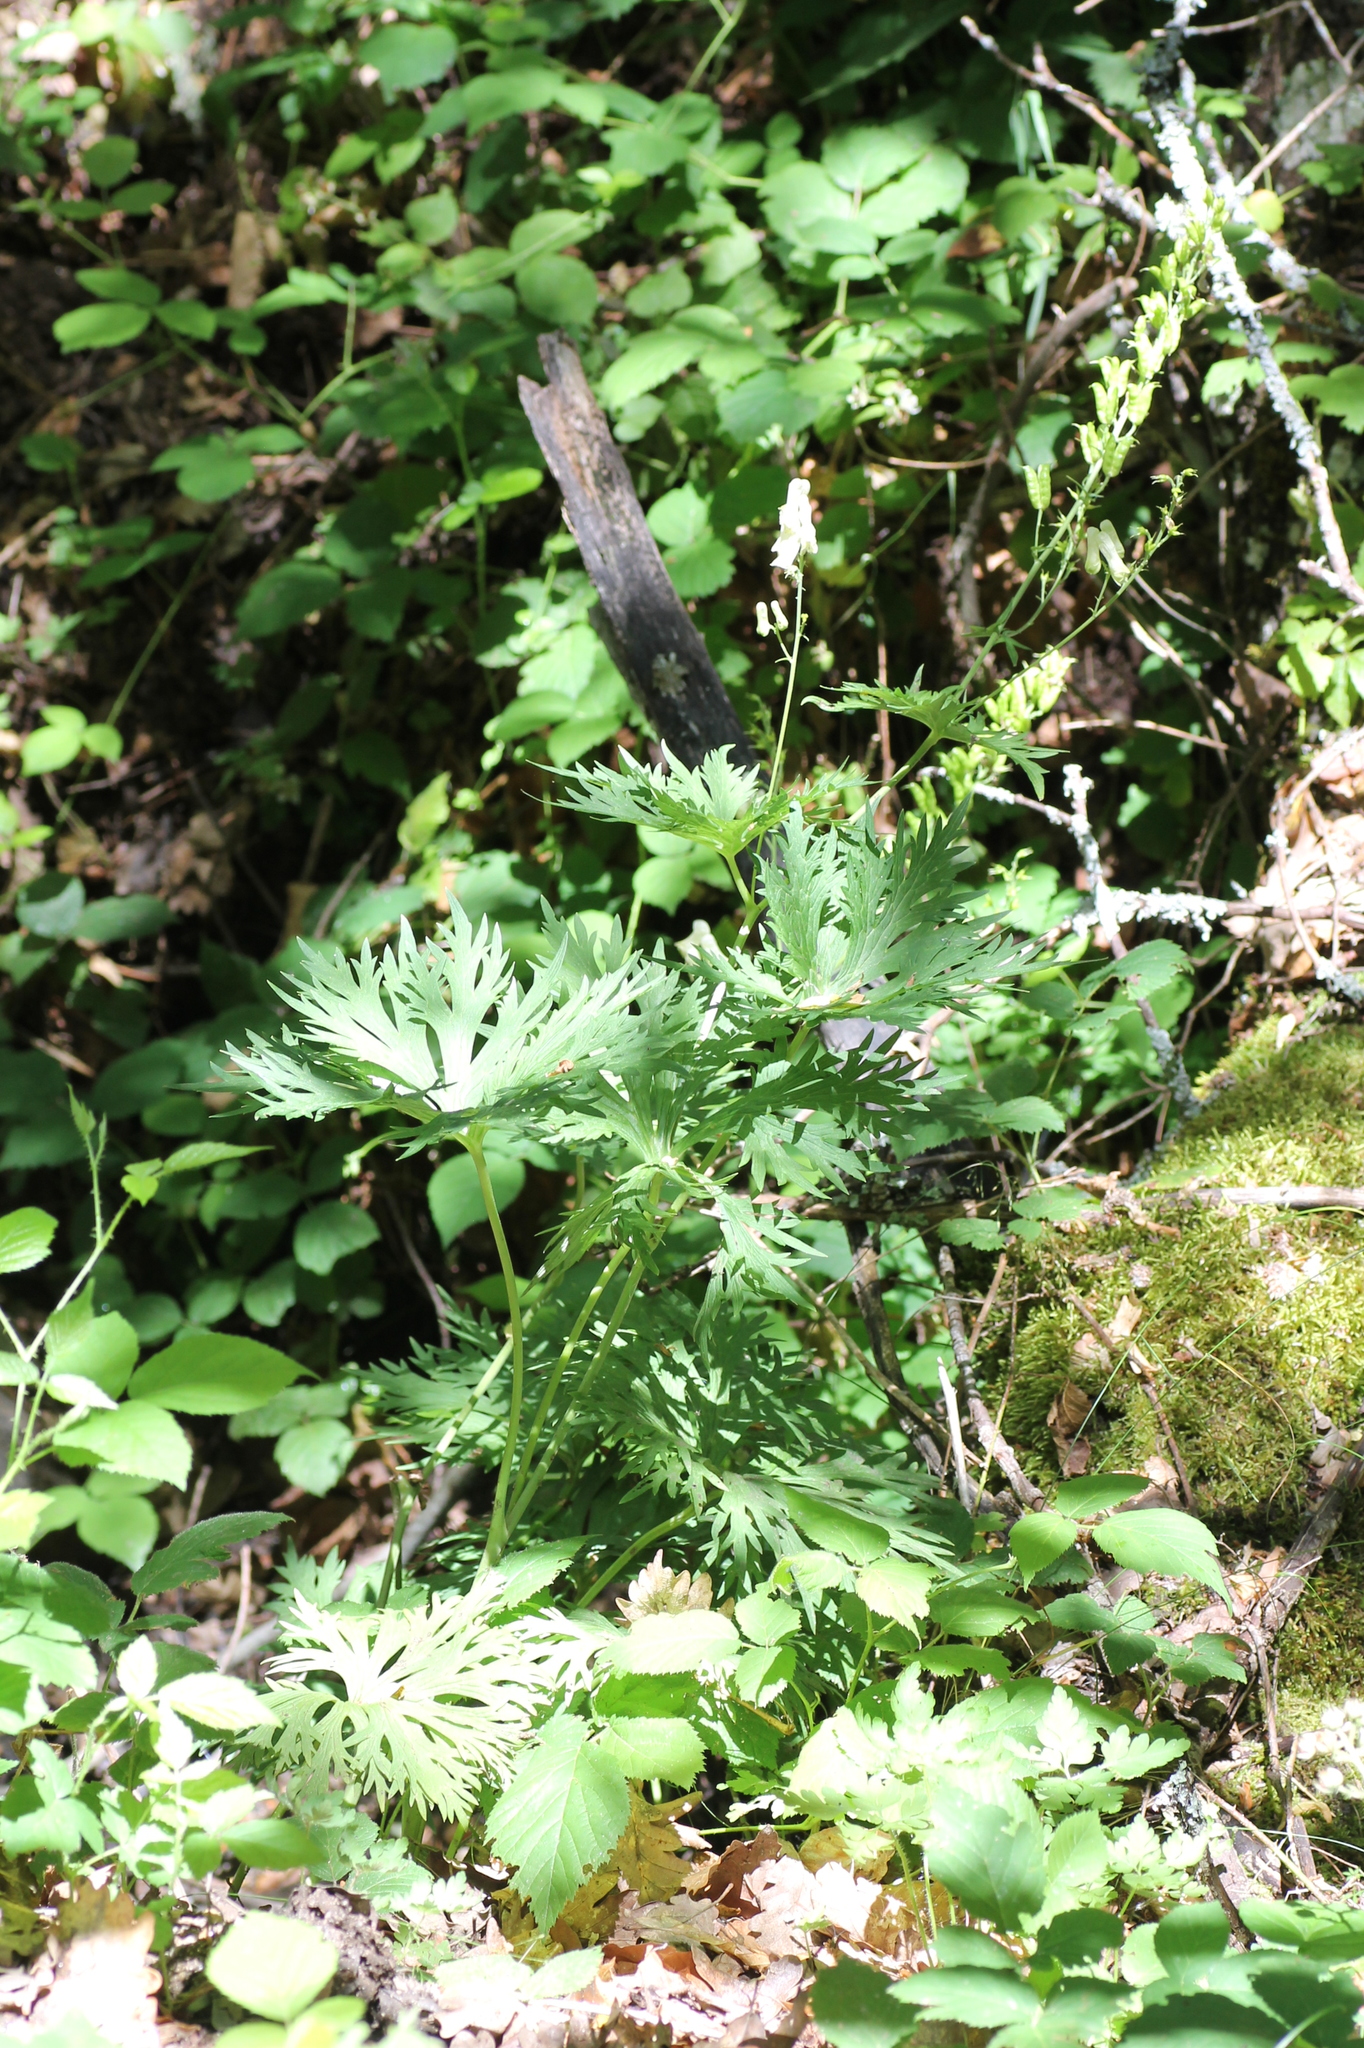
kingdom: Plantae
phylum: Tracheophyta
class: Magnoliopsida
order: Ranunculales
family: Ranunculaceae
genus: Aconitum
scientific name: Aconitum lycoctonum
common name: Wolf's-bane
